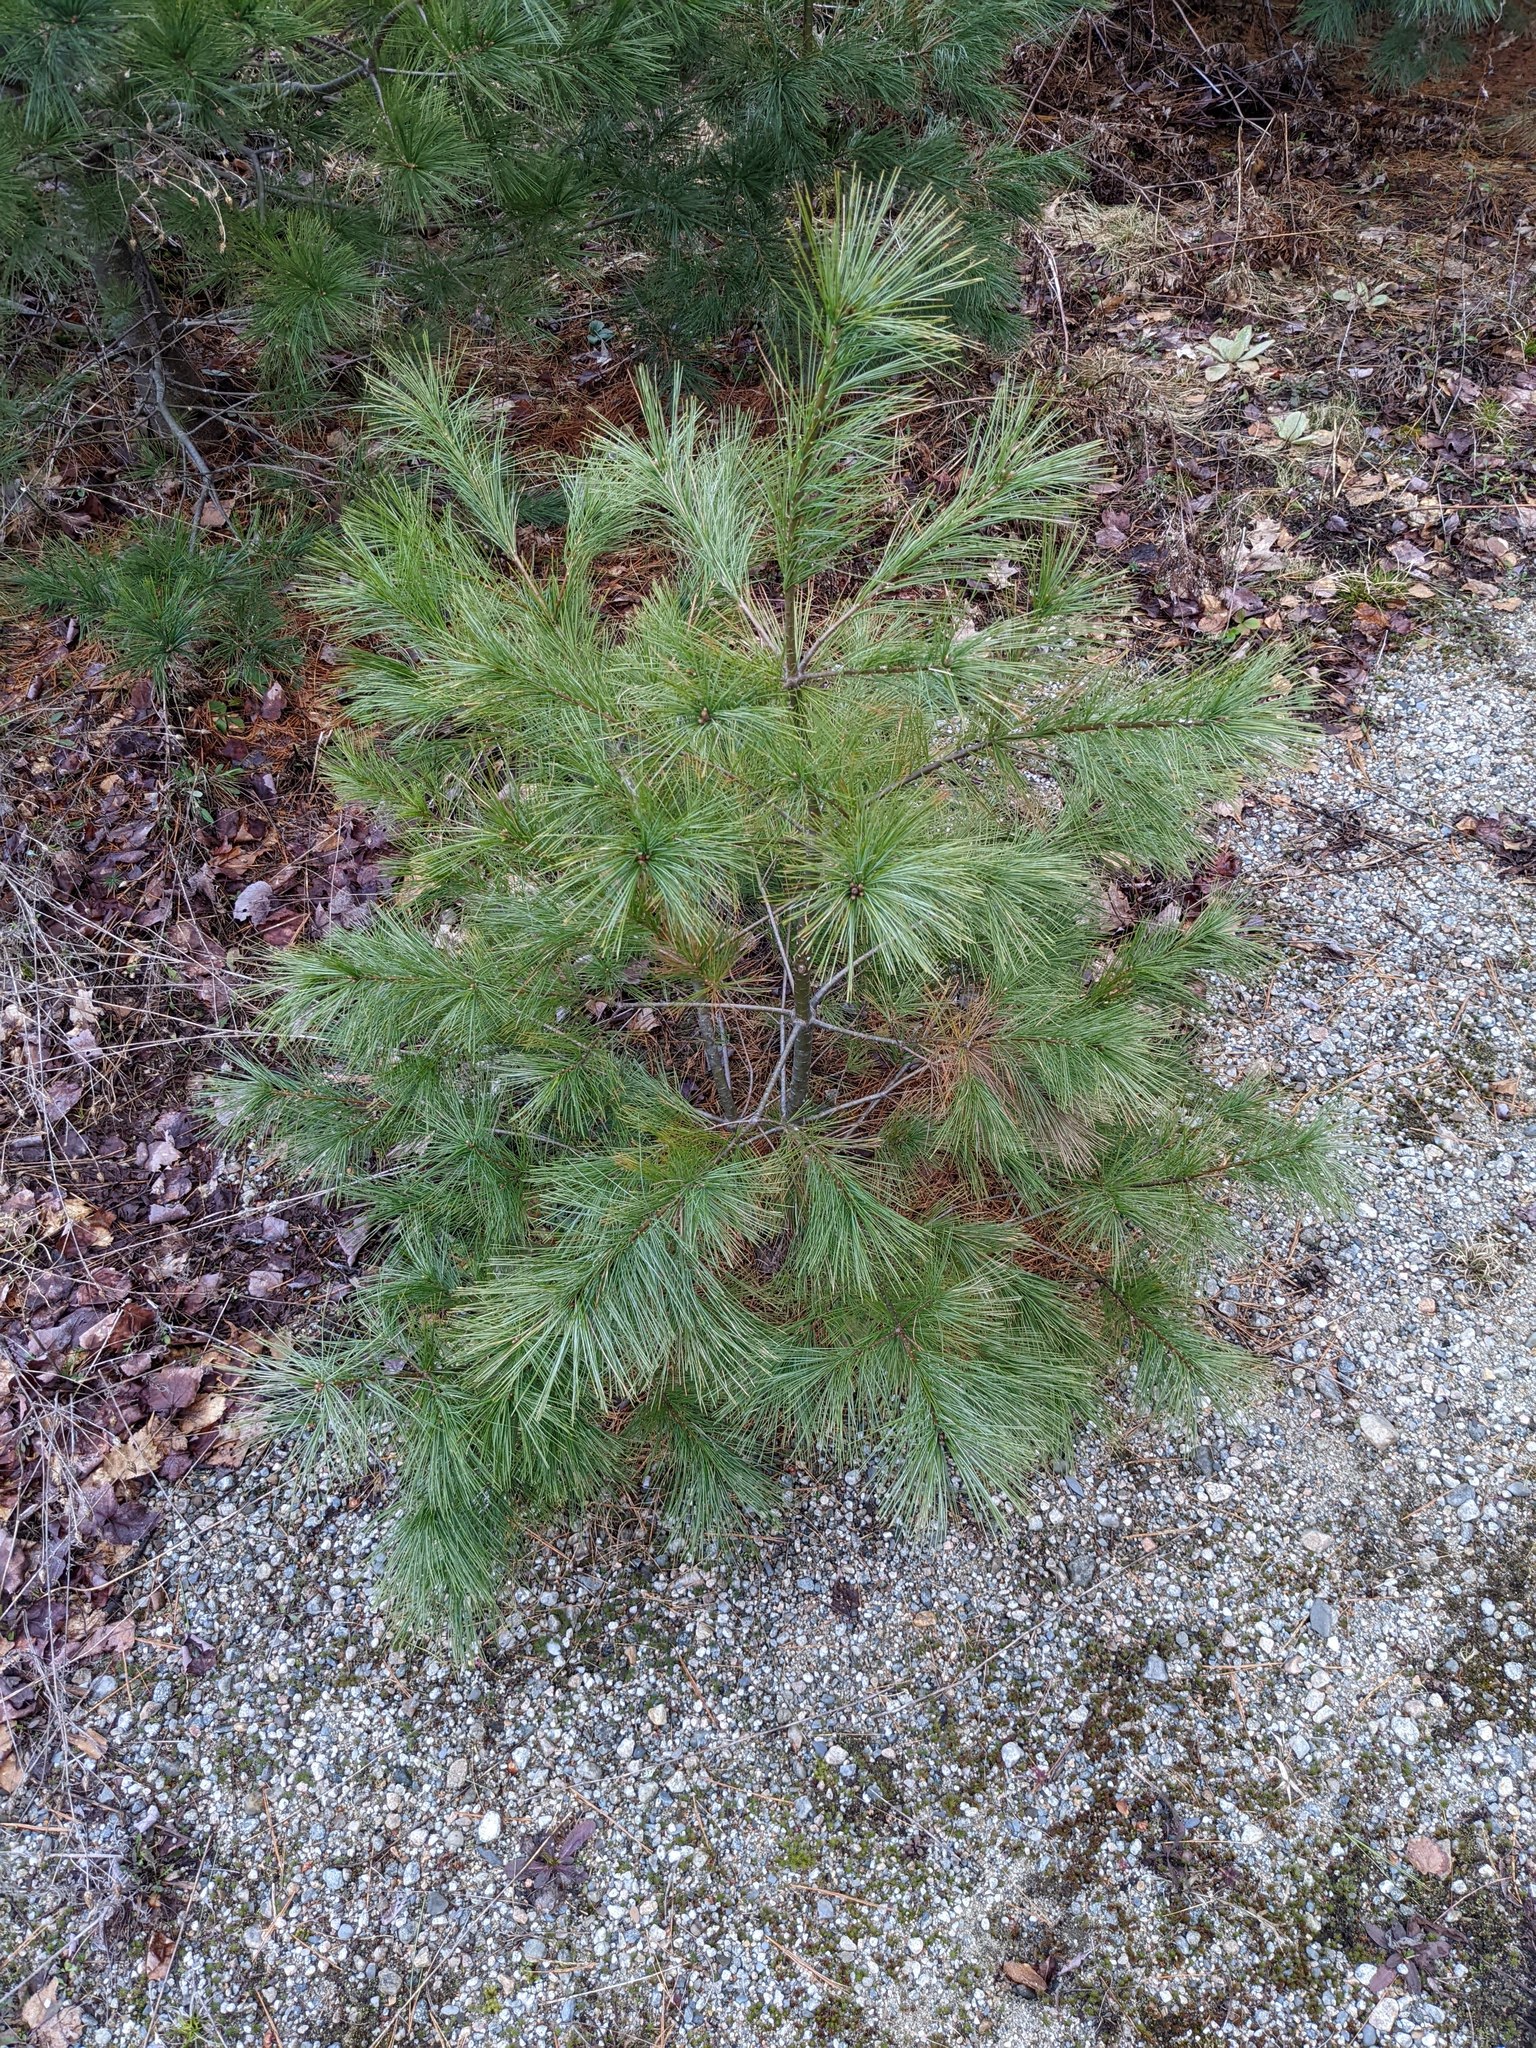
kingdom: Plantae
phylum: Tracheophyta
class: Pinopsida
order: Pinales
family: Pinaceae
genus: Pinus
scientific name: Pinus strobus
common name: Weymouth pine
